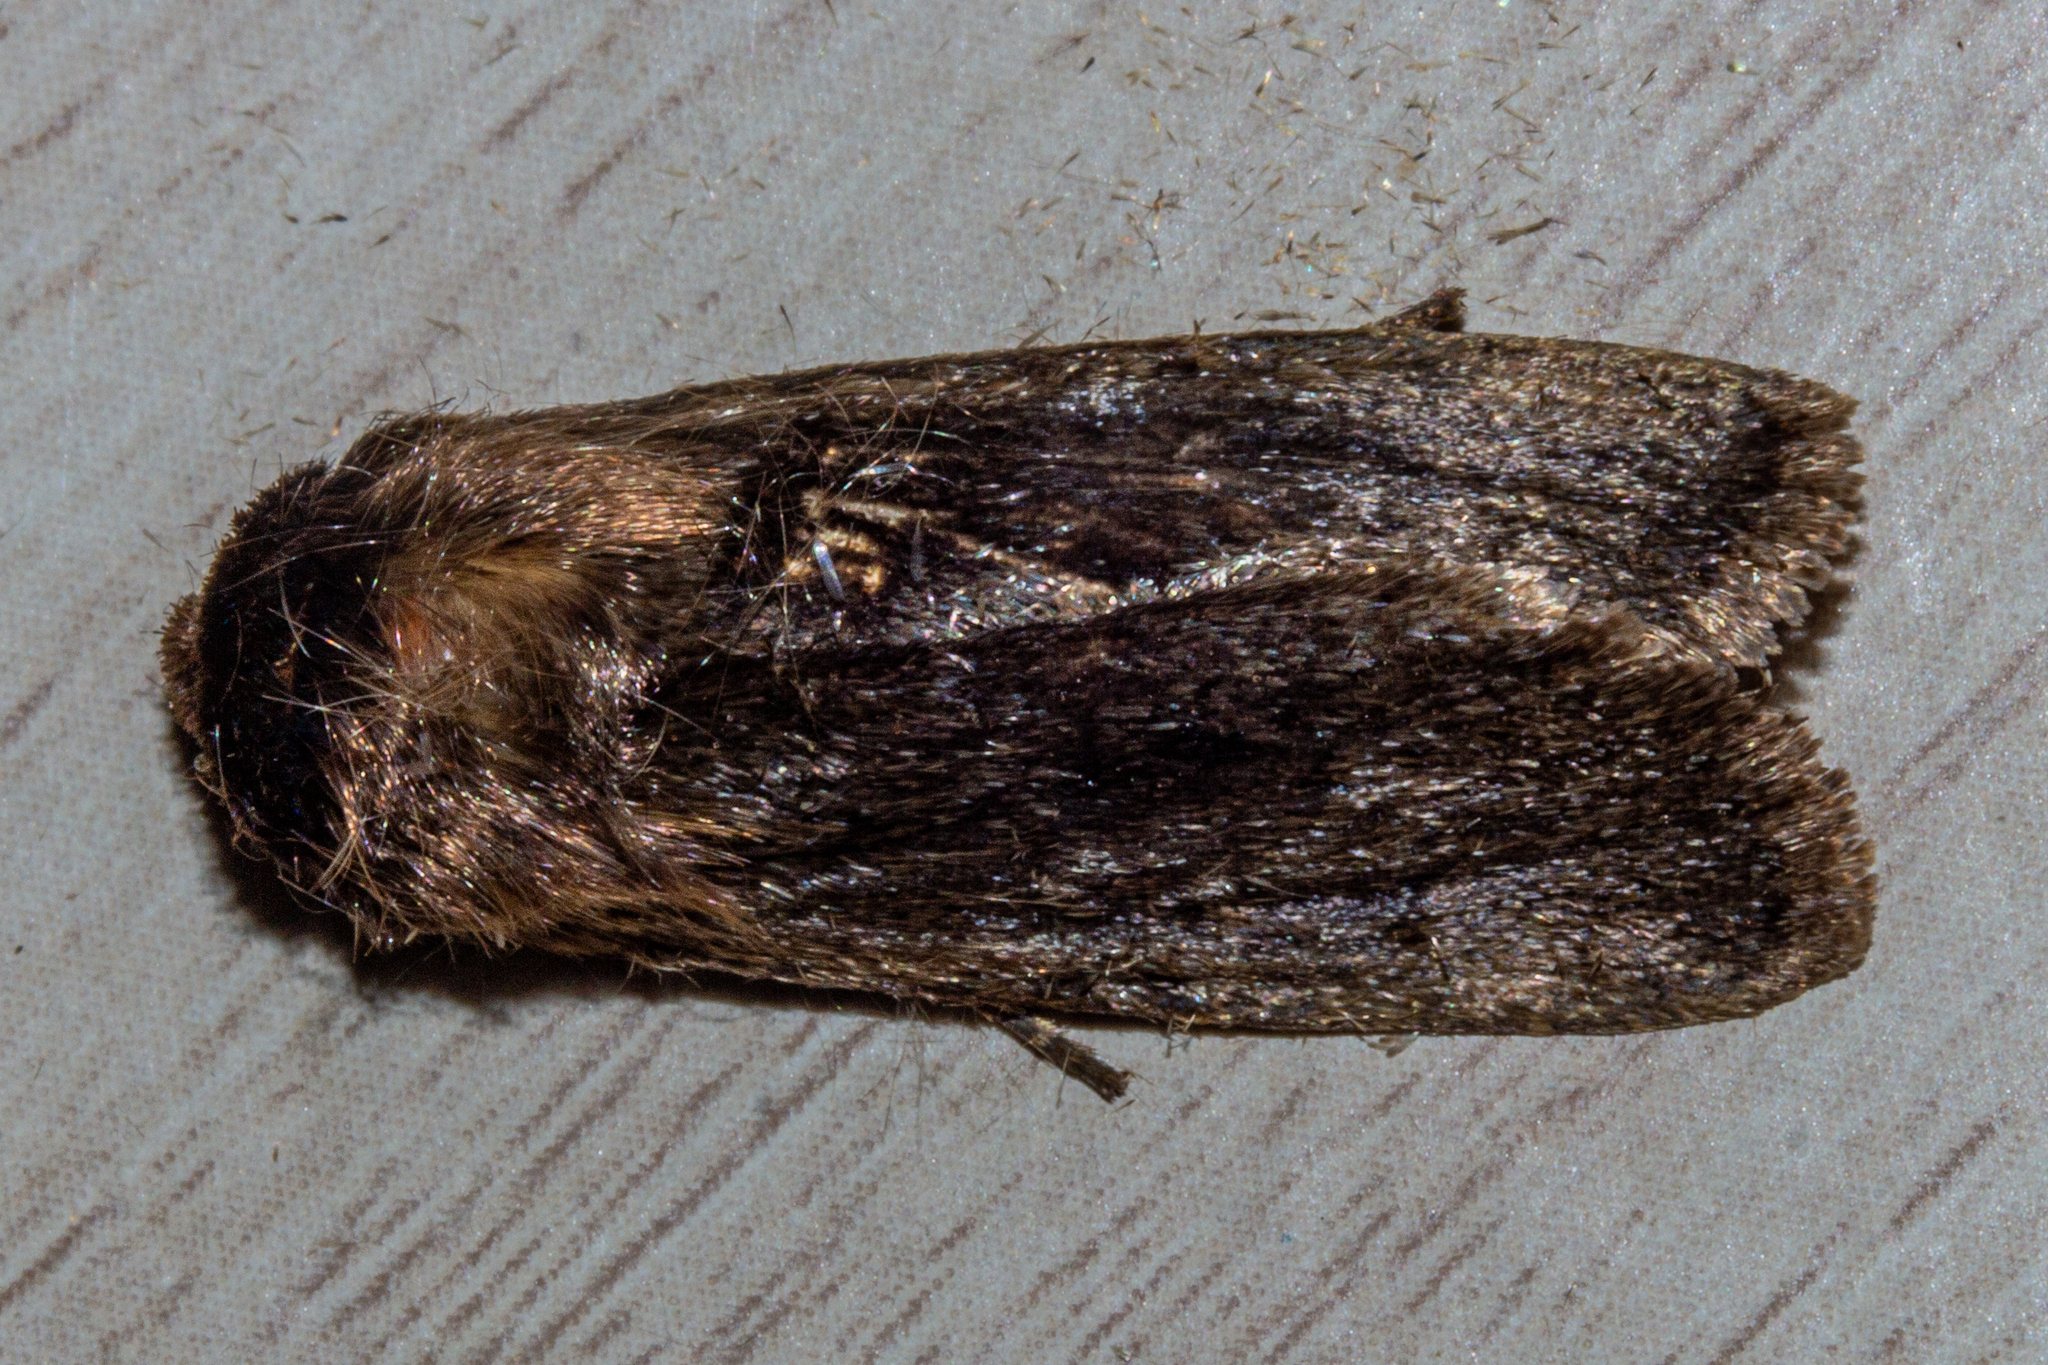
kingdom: Animalia
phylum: Arthropoda
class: Insecta
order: Lepidoptera
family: Noctuidae
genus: Bityla
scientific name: Bityla defigurata
